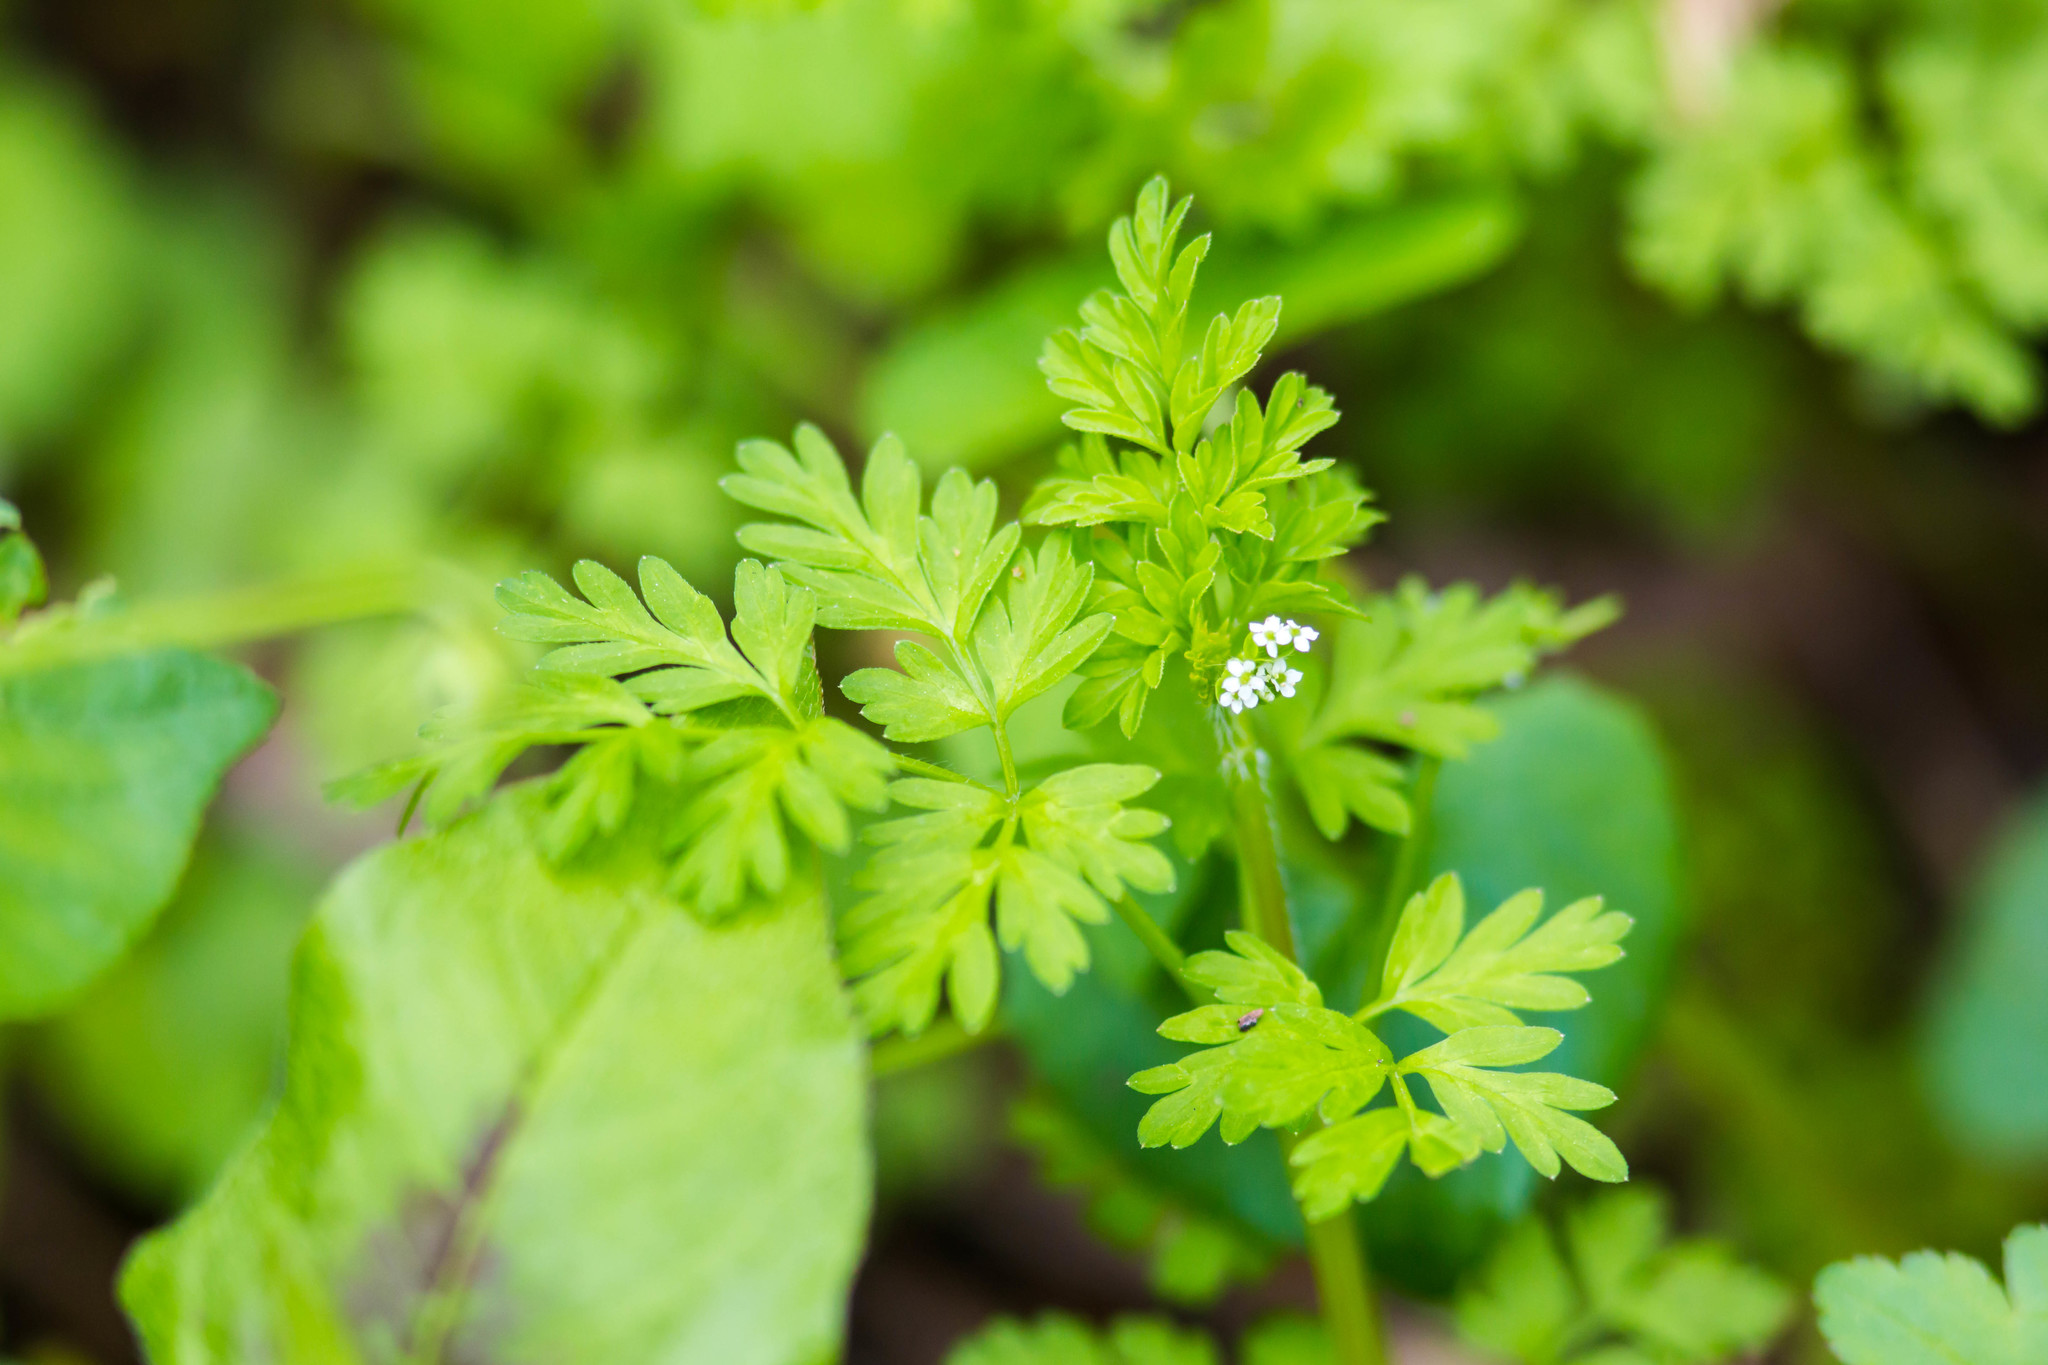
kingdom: Plantae
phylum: Tracheophyta
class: Magnoliopsida
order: Apiales
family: Apiaceae
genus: Chaerophyllum
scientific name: Chaerophyllum procumbens
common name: Spreading chervil
